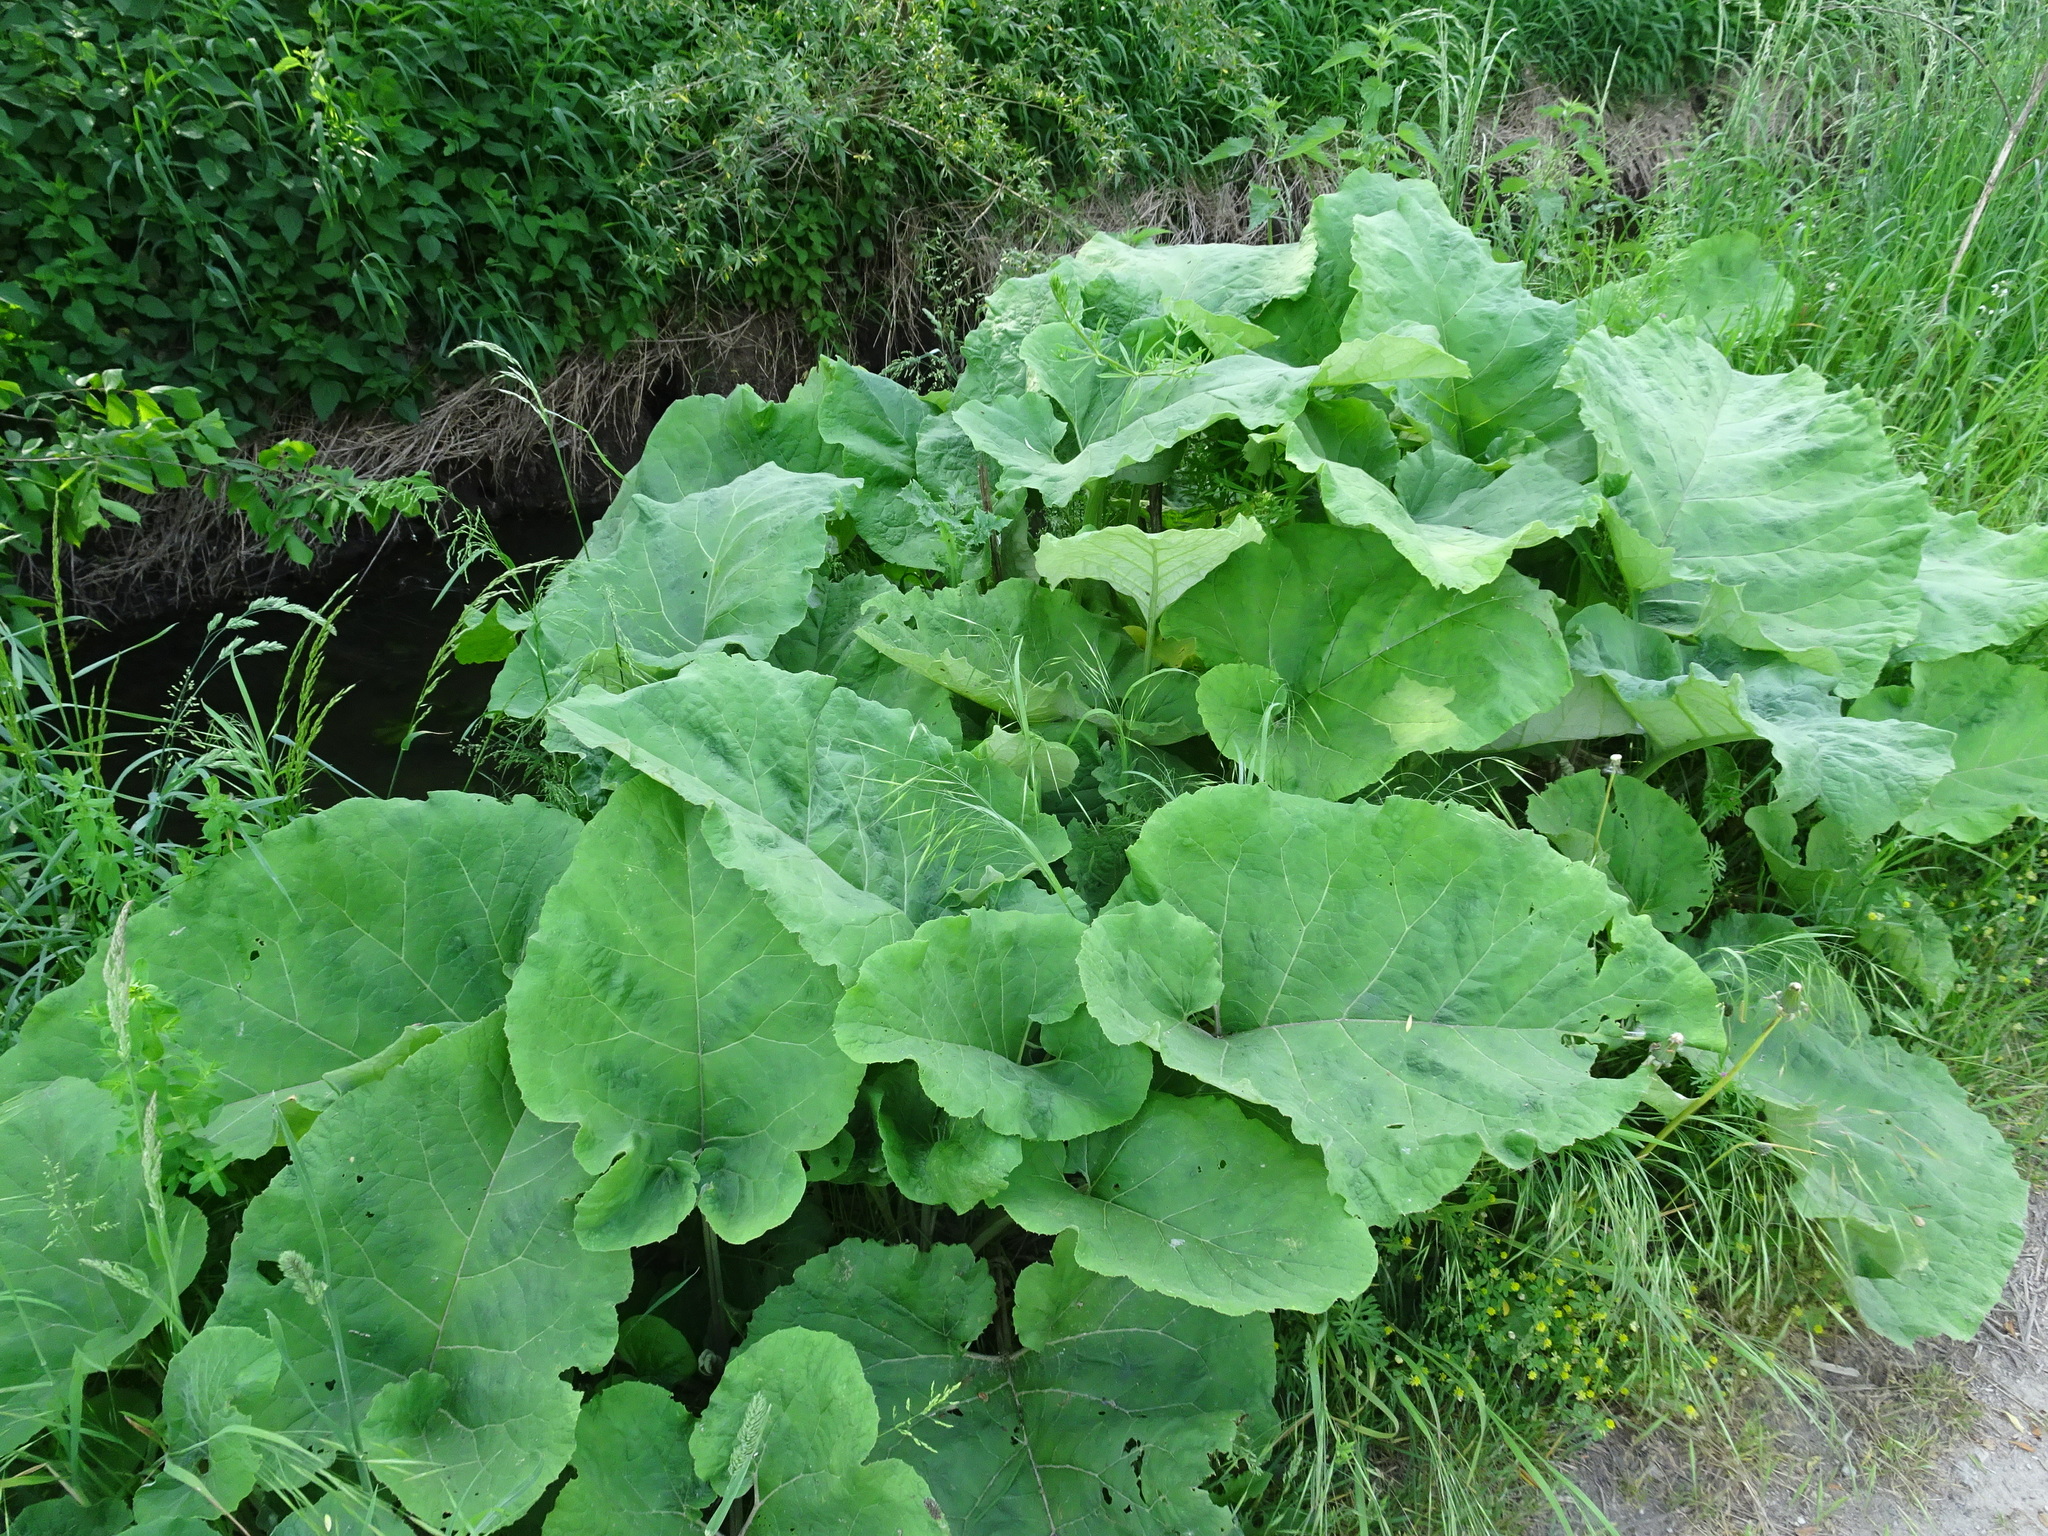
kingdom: Plantae
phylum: Tracheophyta
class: Magnoliopsida
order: Asterales
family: Asteraceae
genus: Arctium
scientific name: Arctium lappa
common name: Greater burdock
